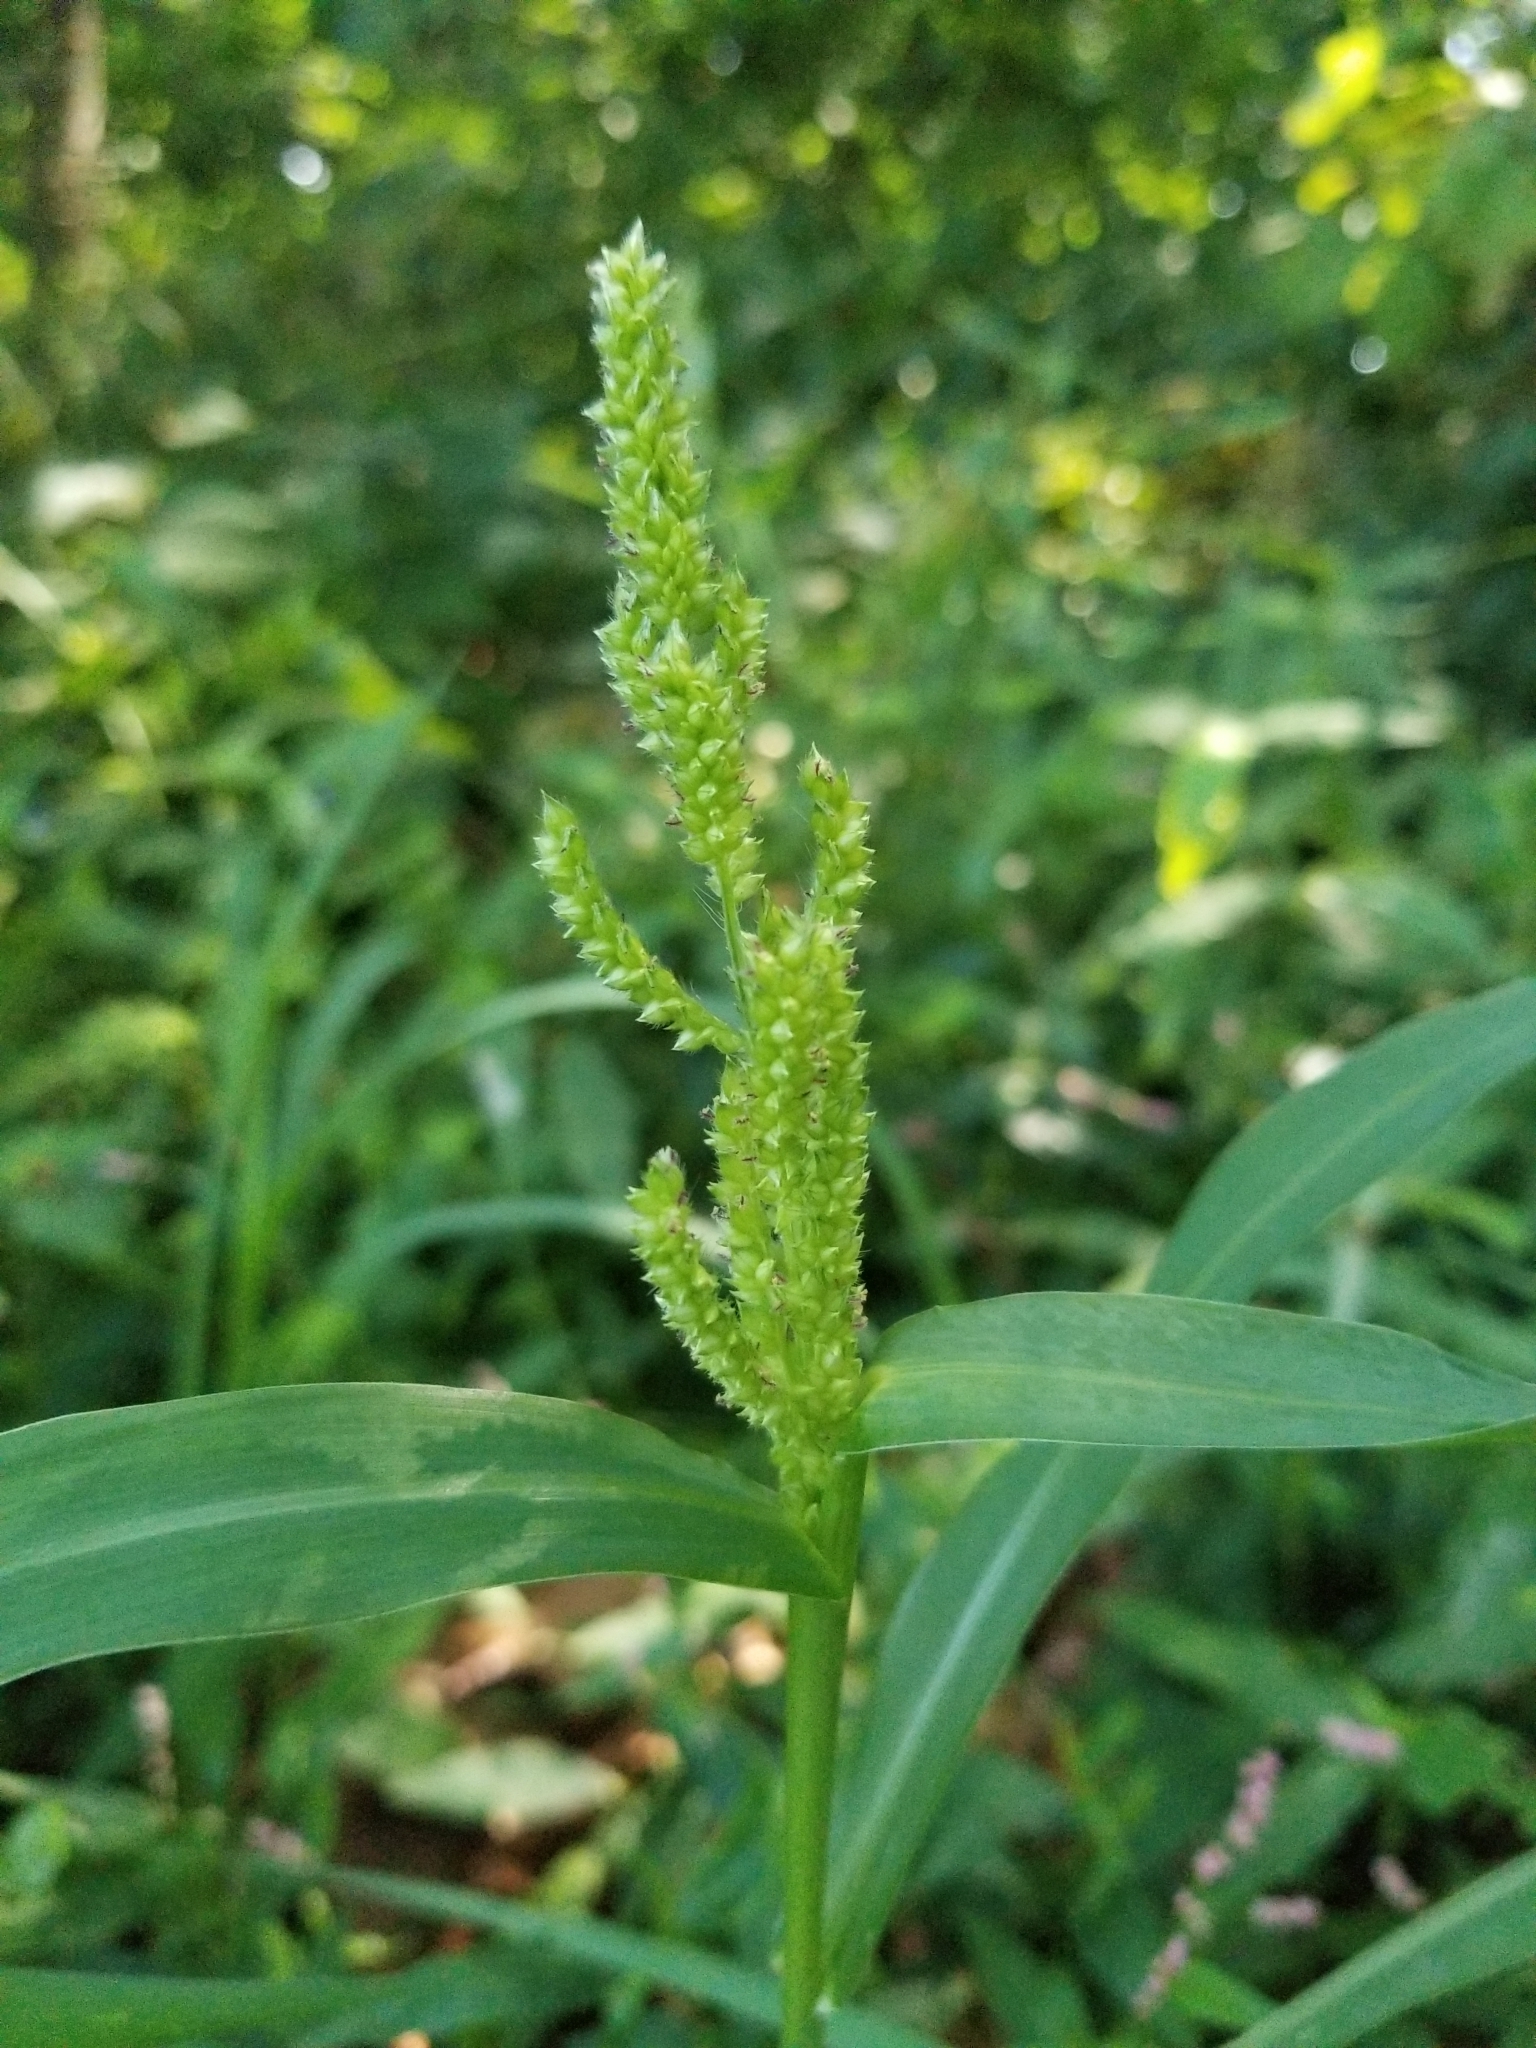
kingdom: Plantae
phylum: Tracheophyta
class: Liliopsida
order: Poales
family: Poaceae
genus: Echinochloa
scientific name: Echinochloa crus-galli
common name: Cockspur
